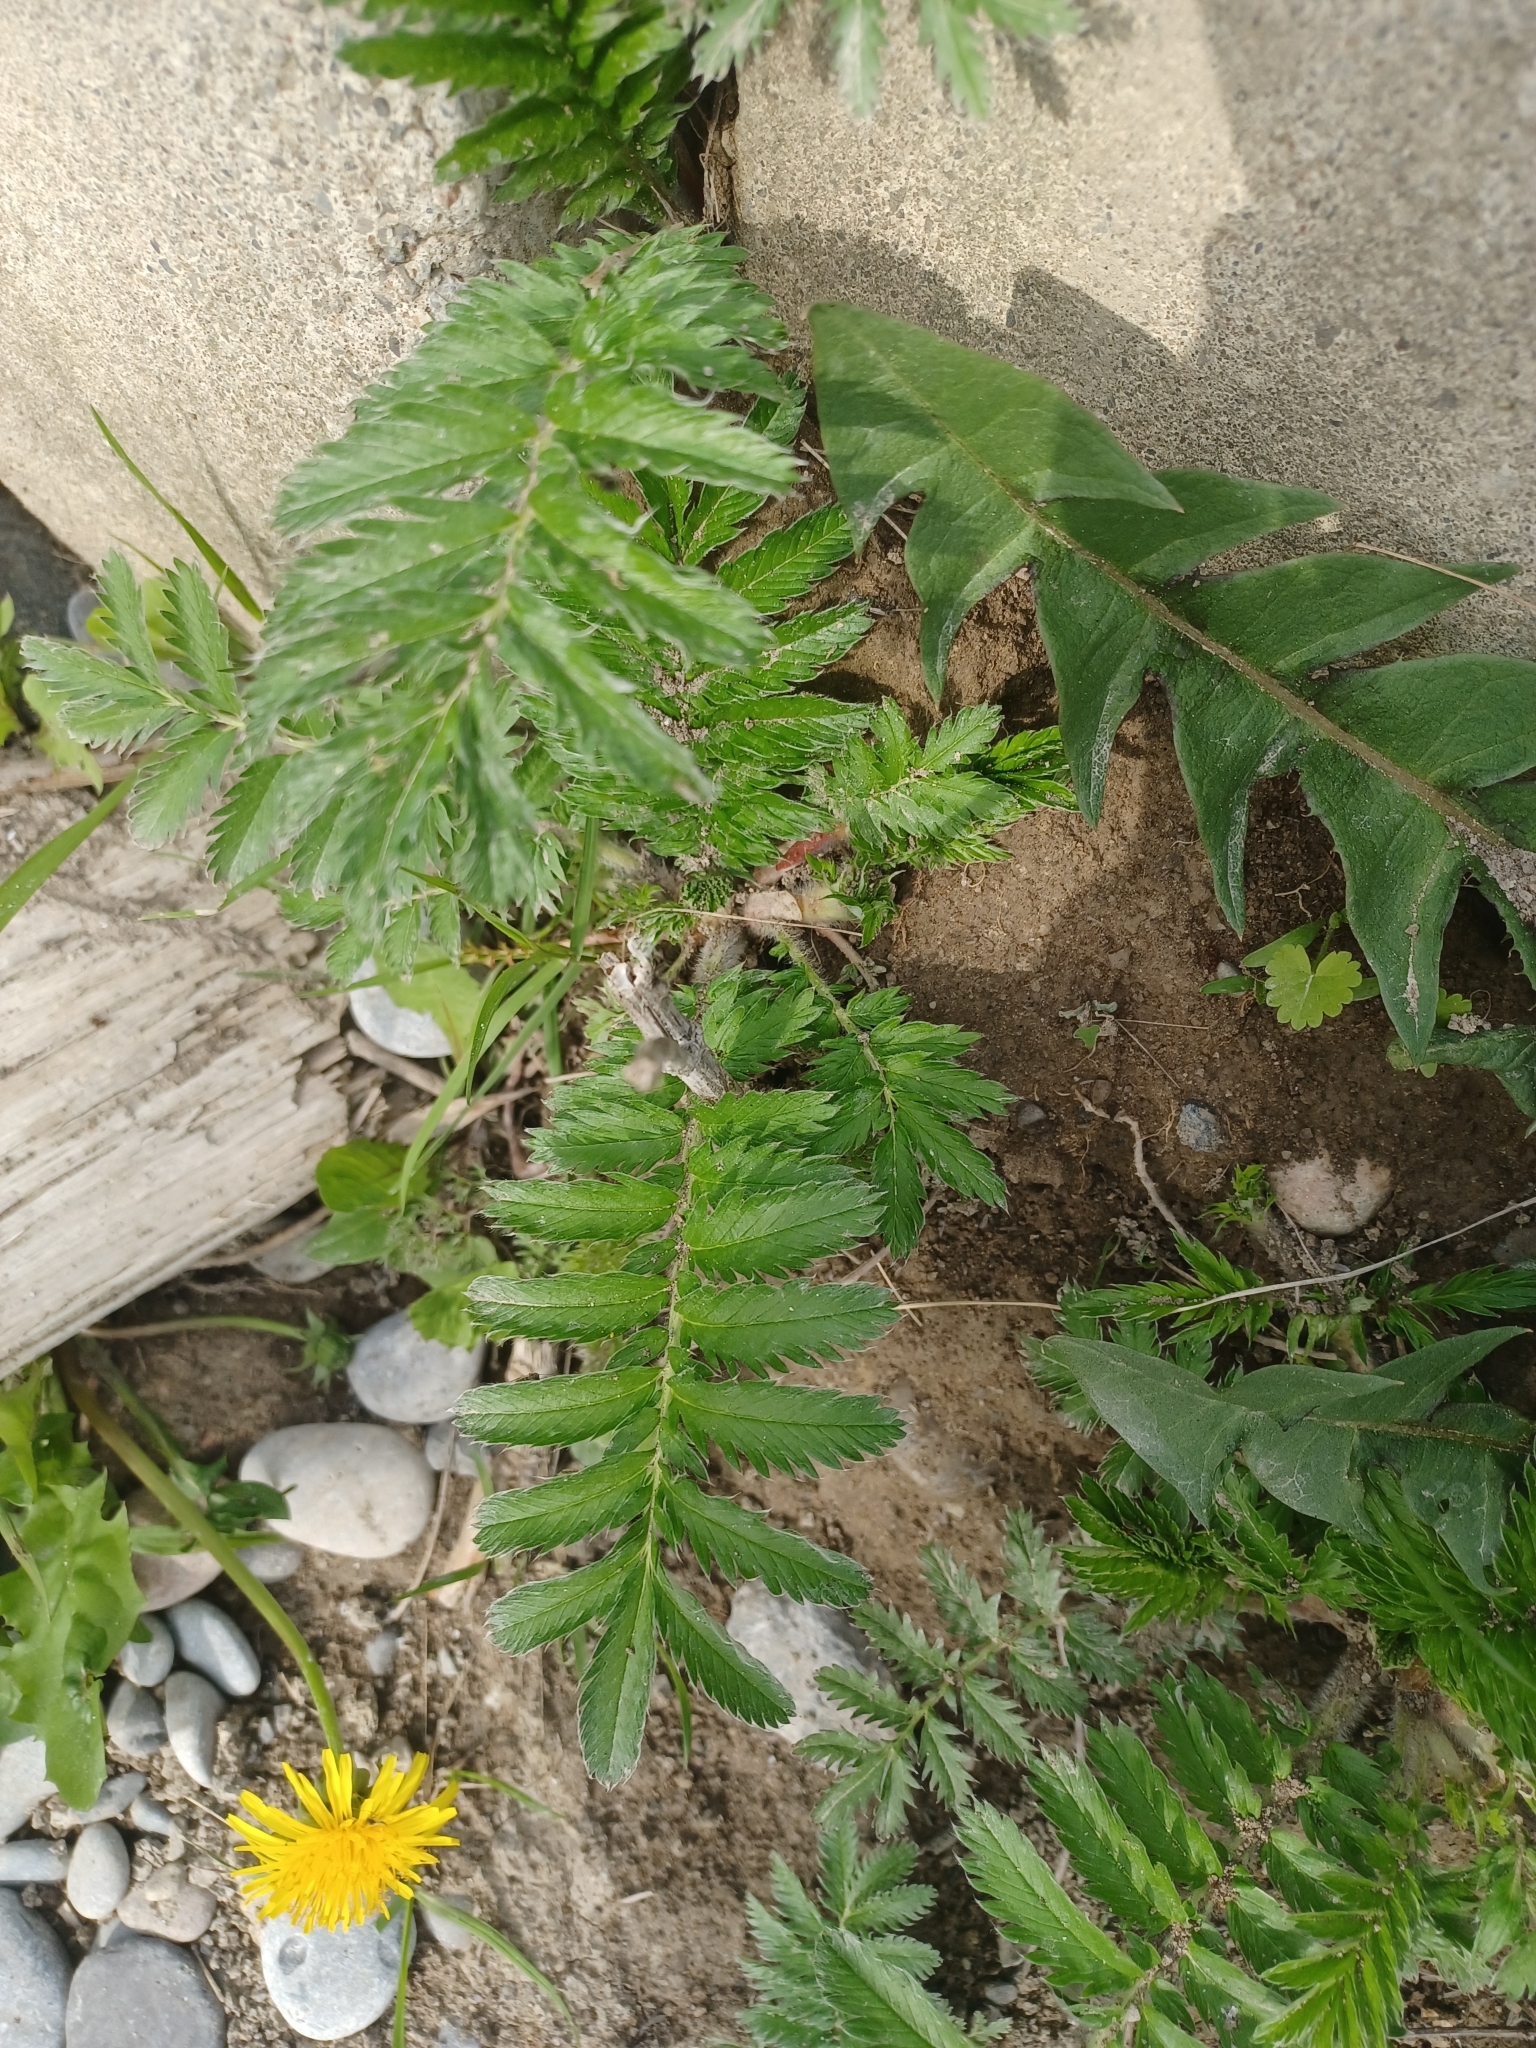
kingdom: Plantae
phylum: Tracheophyta
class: Magnoliopsida
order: Rosales
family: Rosaceae
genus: Argentina
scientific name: Argentina anserina
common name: Common silverweed
